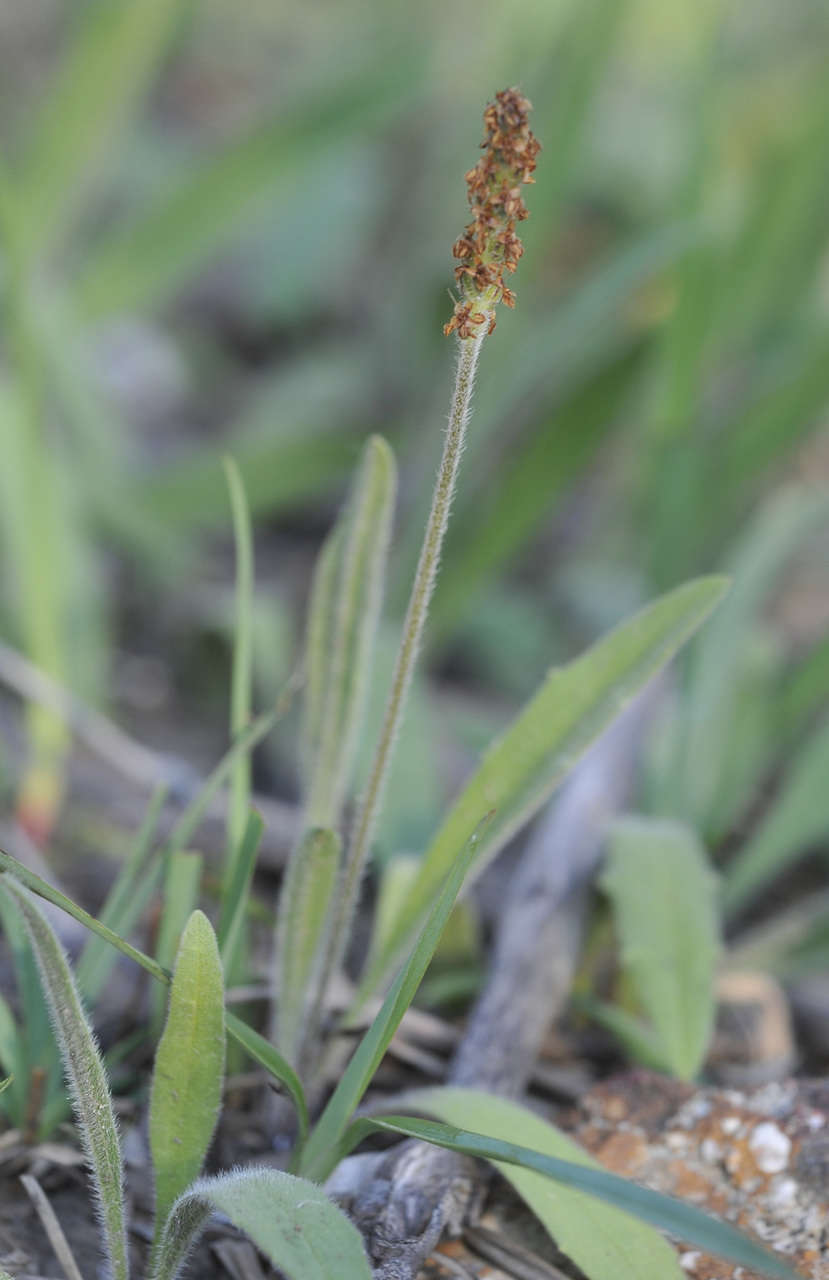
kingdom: Plantae
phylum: Tracheophyta
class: Magnoliopsida
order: Lamiales
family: Plantaginaceae
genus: Plantago
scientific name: Plantago varia
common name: Variable plantain
